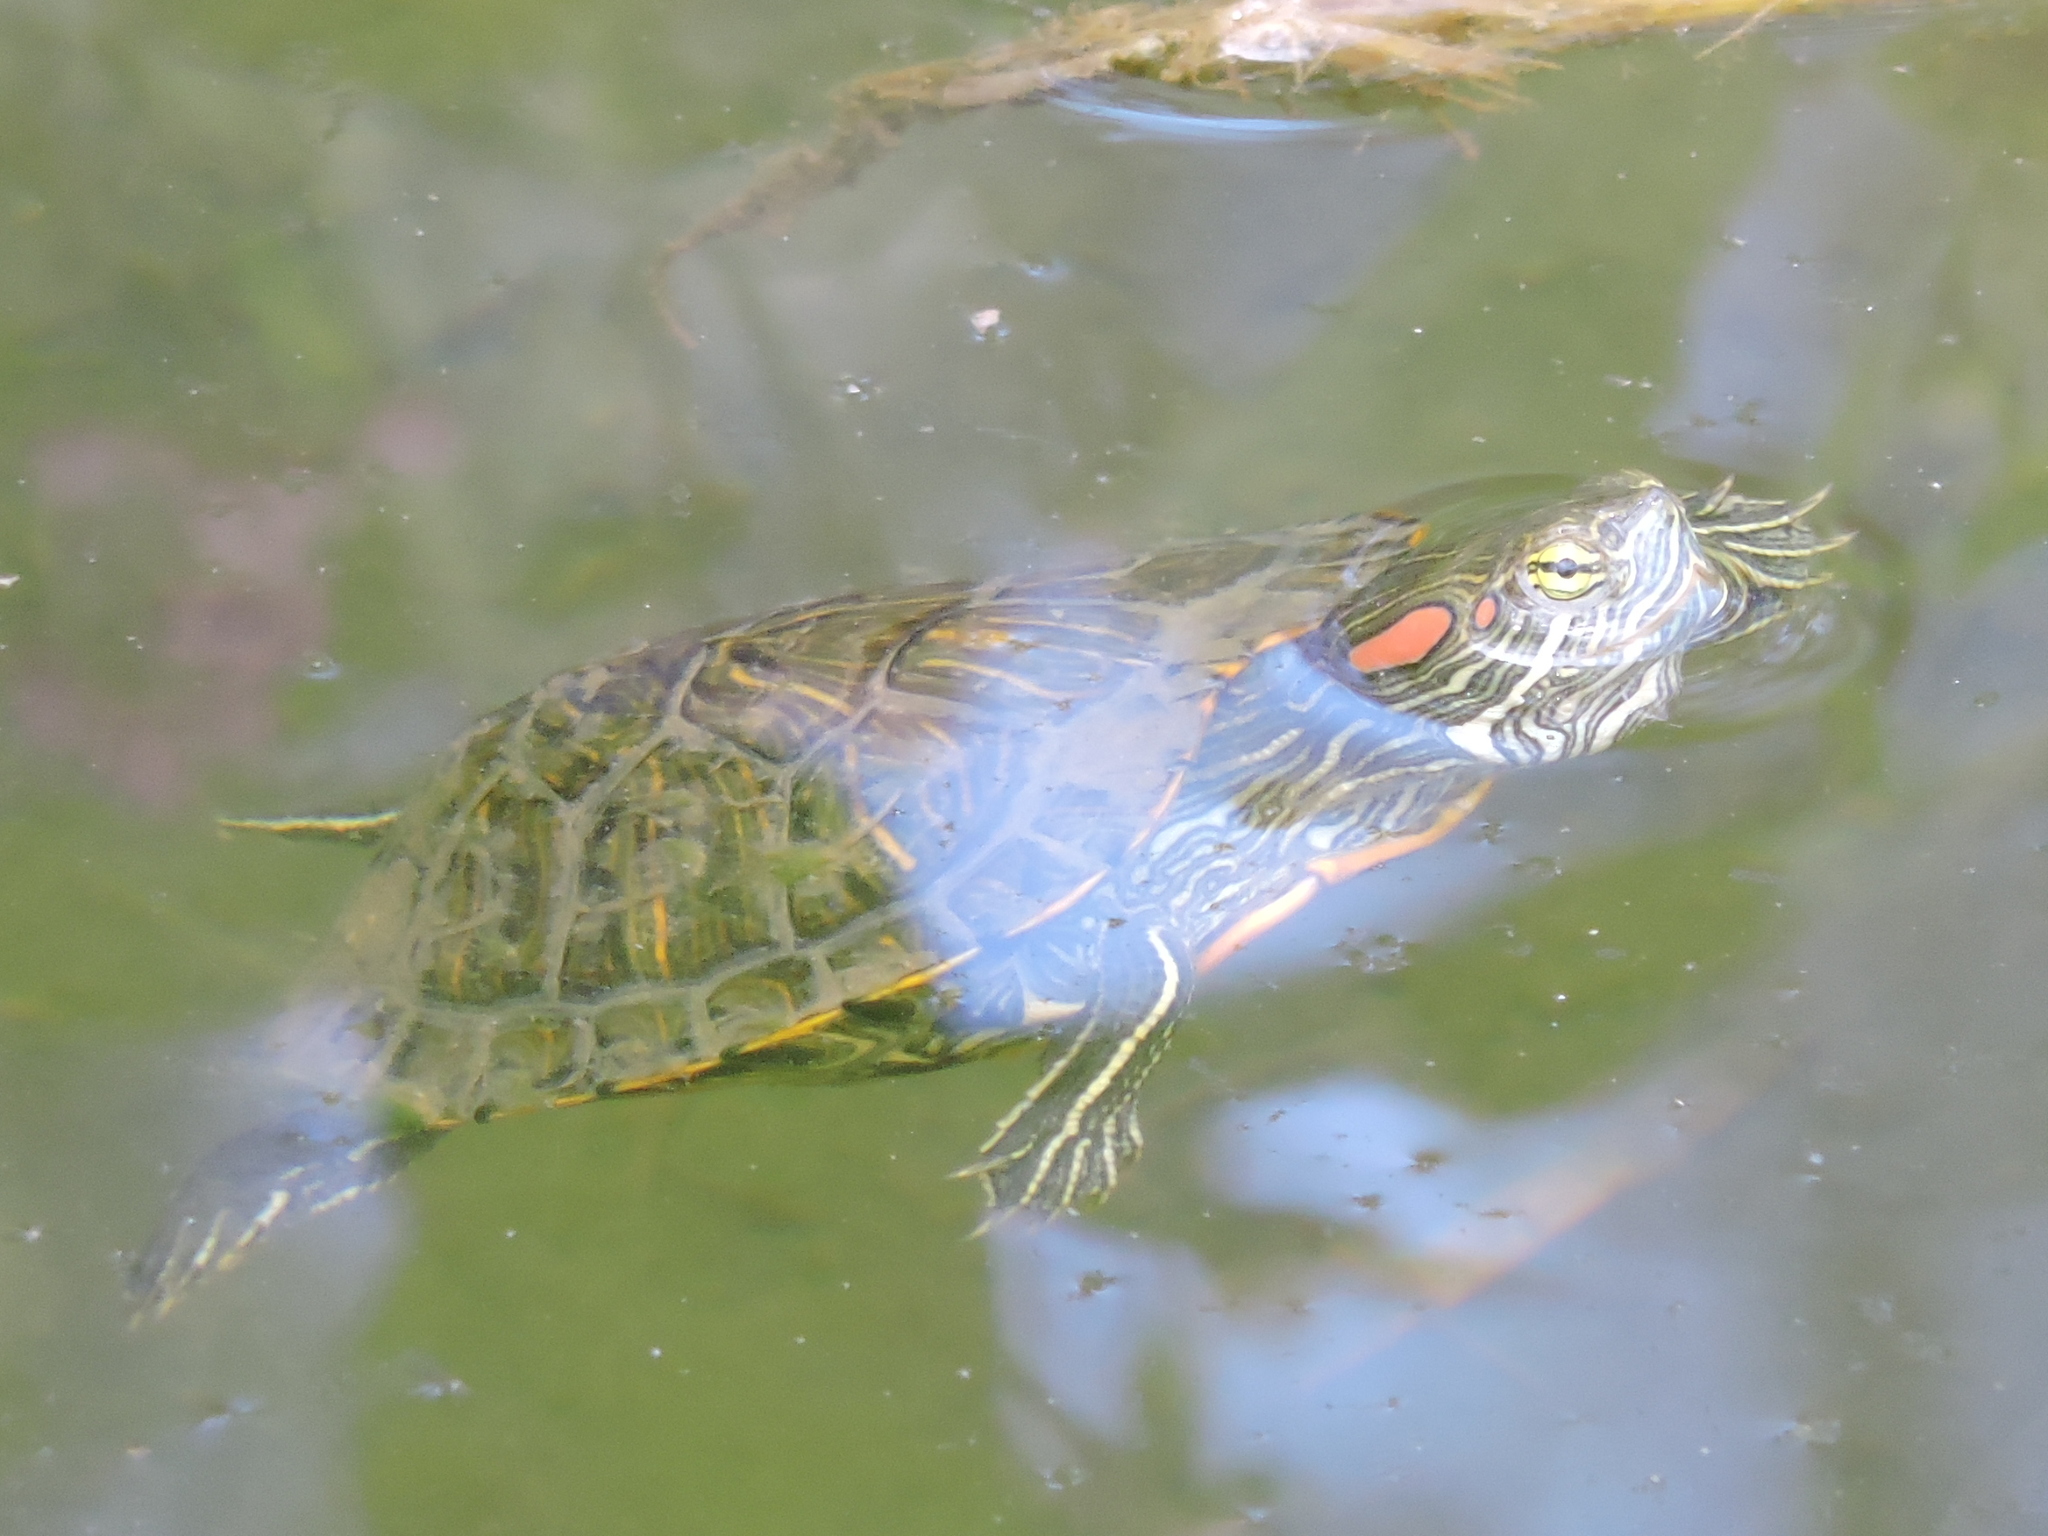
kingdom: Animalia
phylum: Chordata
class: Testudines
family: Emydidae
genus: Trachemys
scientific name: Trachemys scripta
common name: Slider
